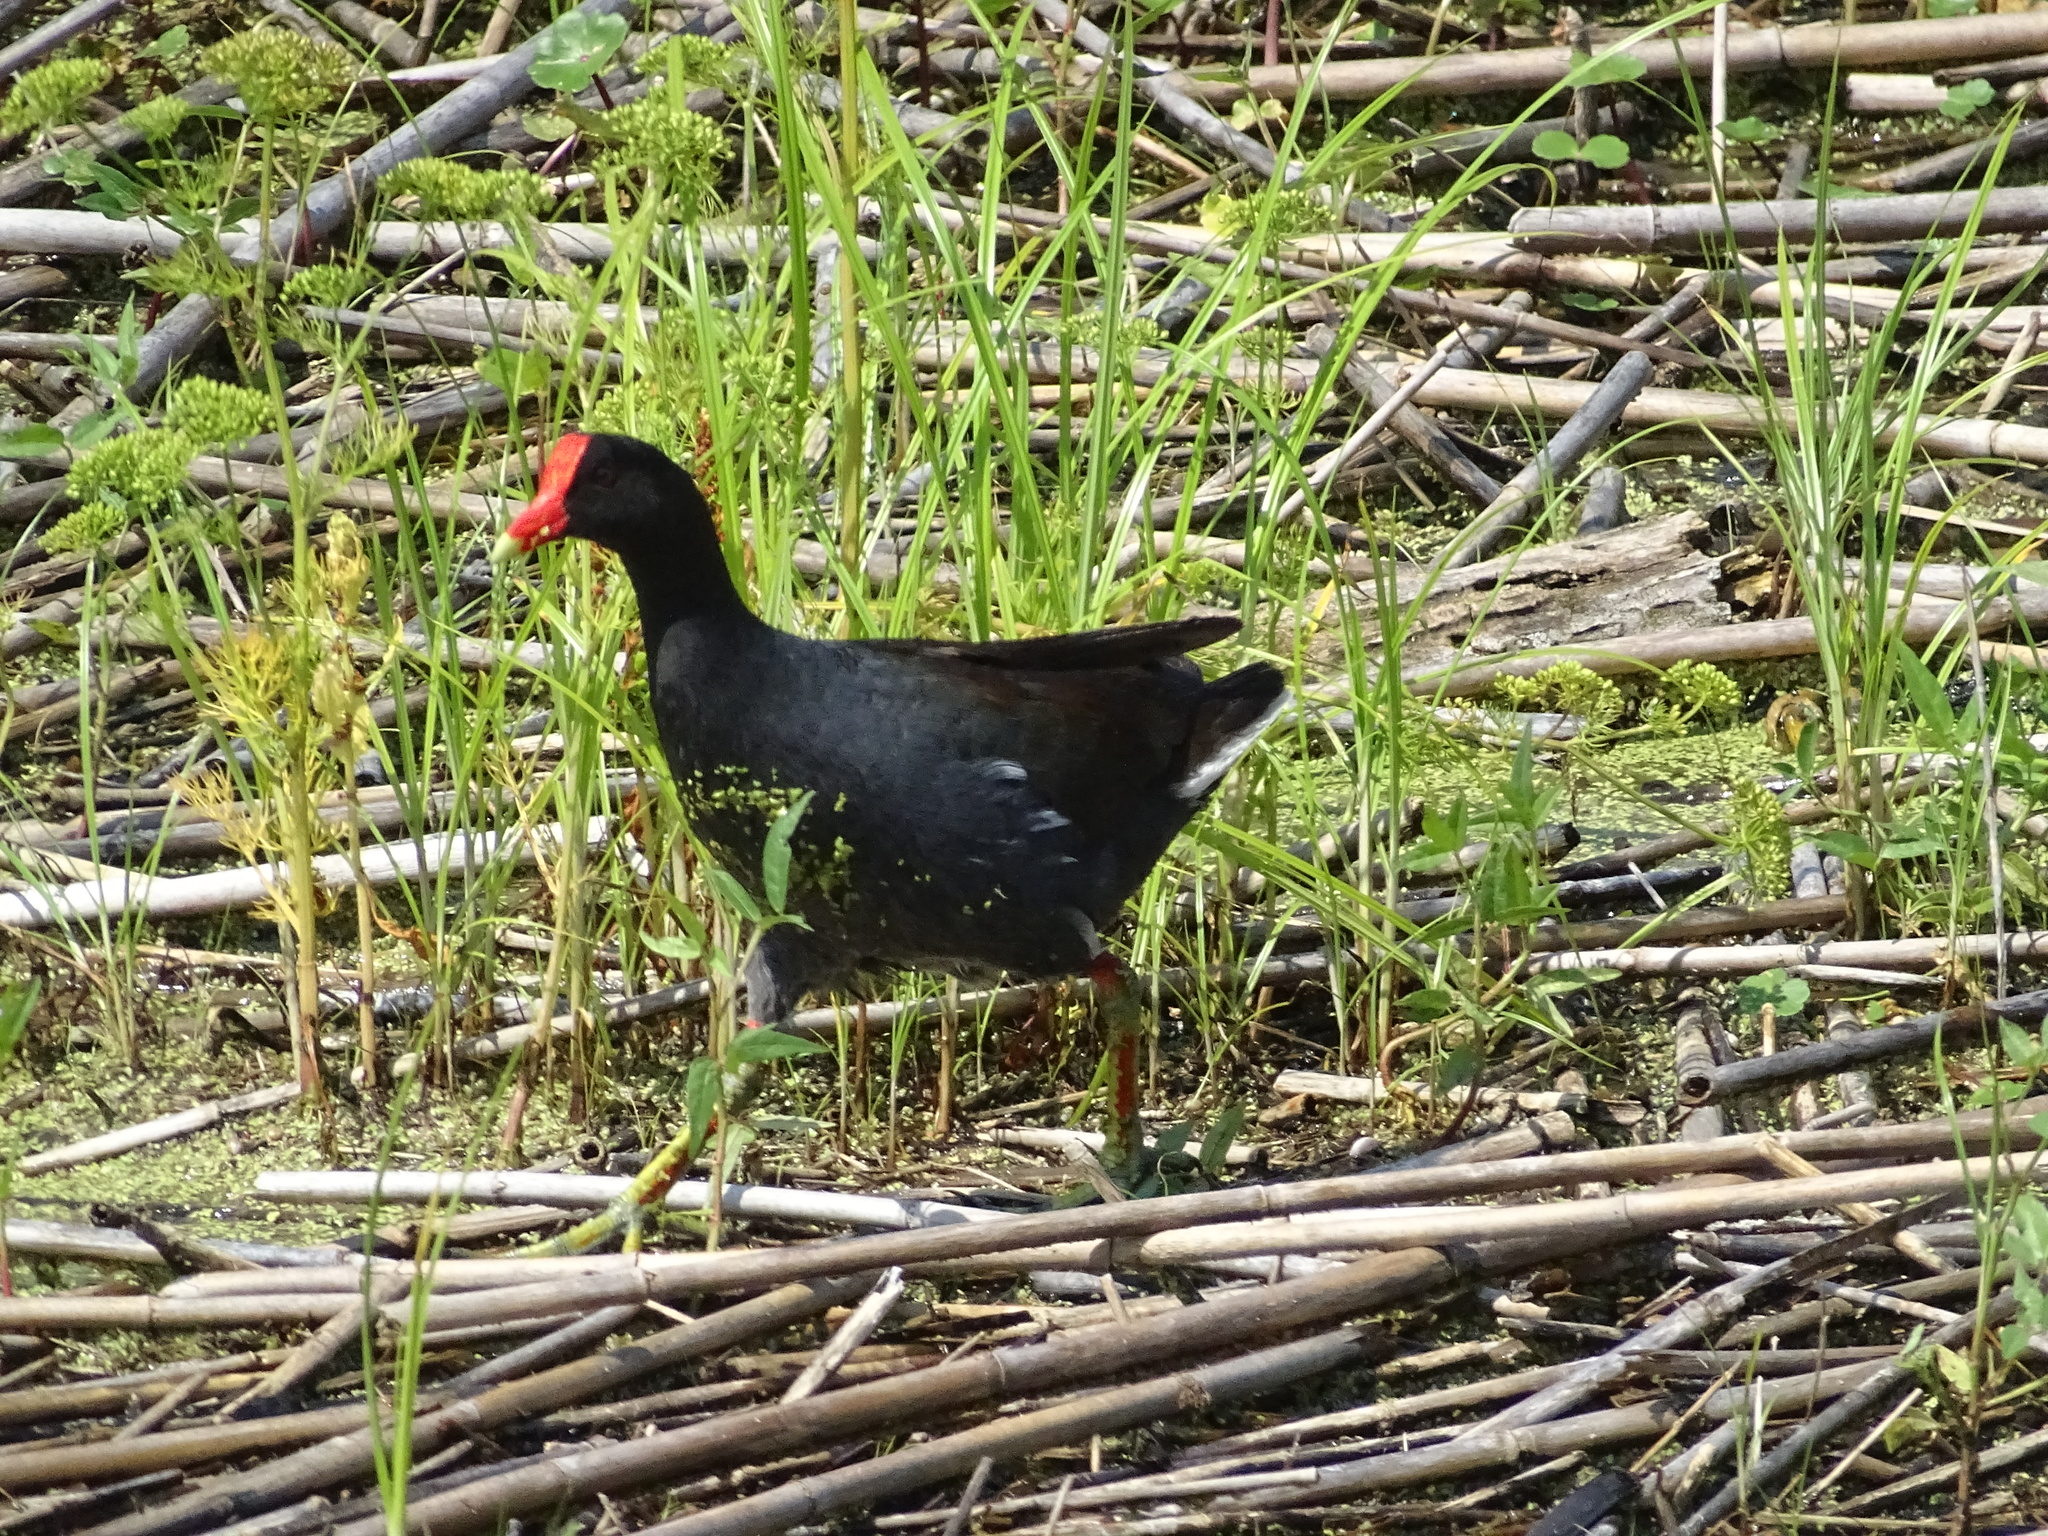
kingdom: Animalia
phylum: Chordata
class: Aves
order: Gruiformes
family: Rallidae
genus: Gallinula
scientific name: Gallinula chloropus
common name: Common moorhen
